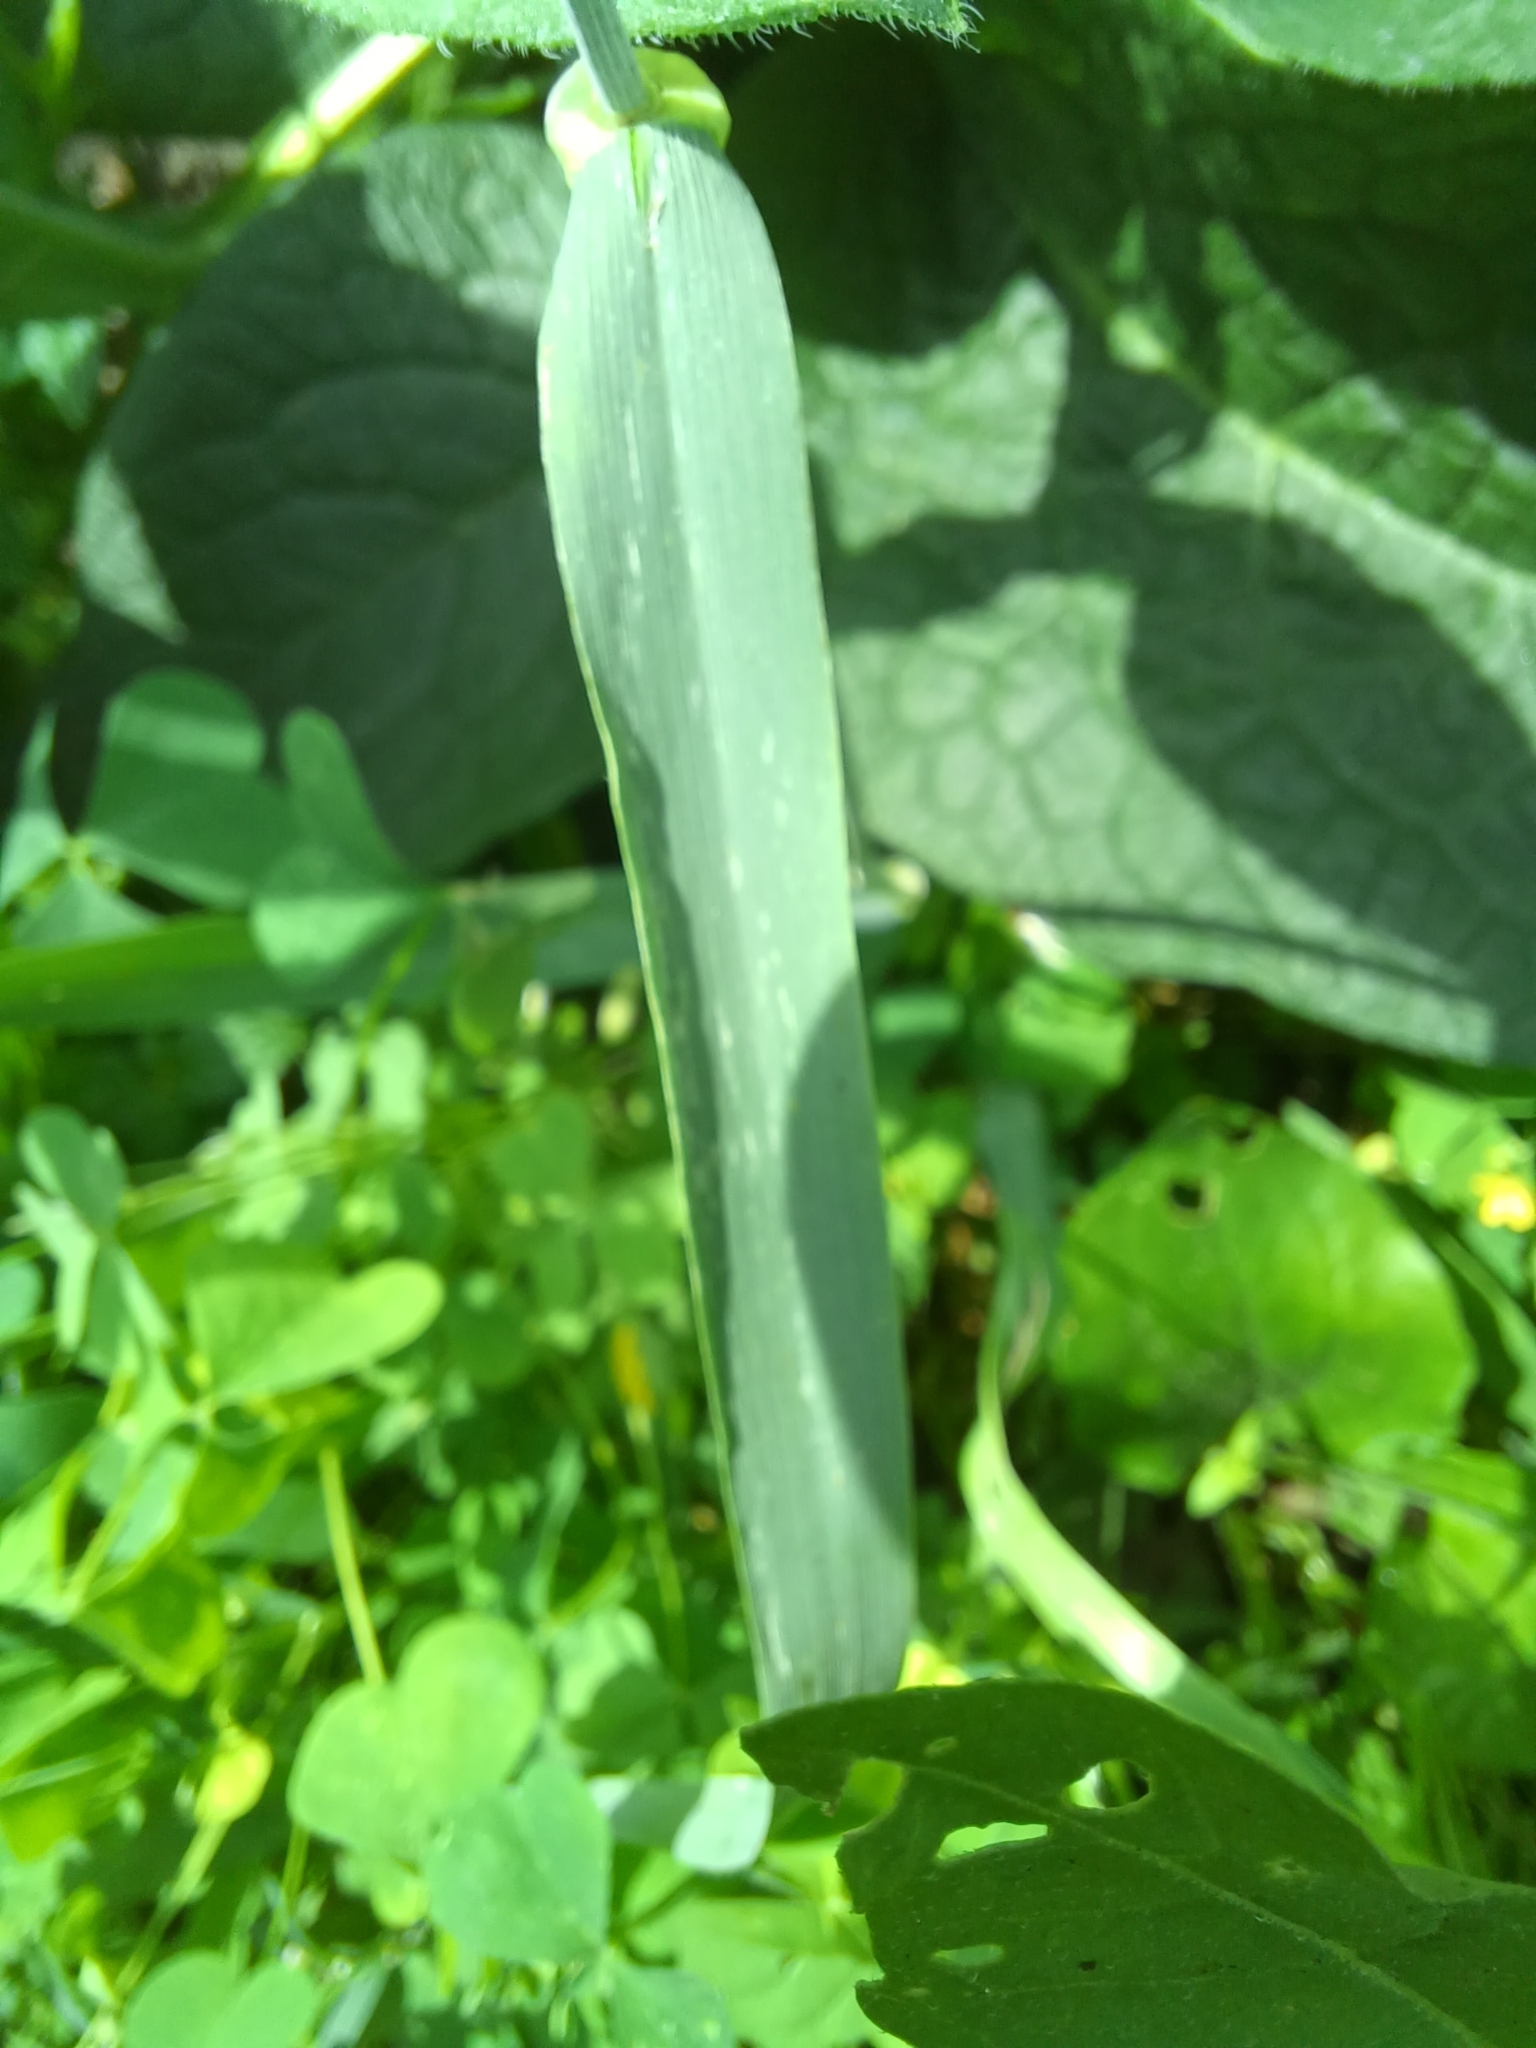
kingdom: Plantae
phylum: Tracheophyta
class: Liliopsida
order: Poales
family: Poaceae
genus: Hordeum
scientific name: Hordeum vulgare
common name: Common barley
